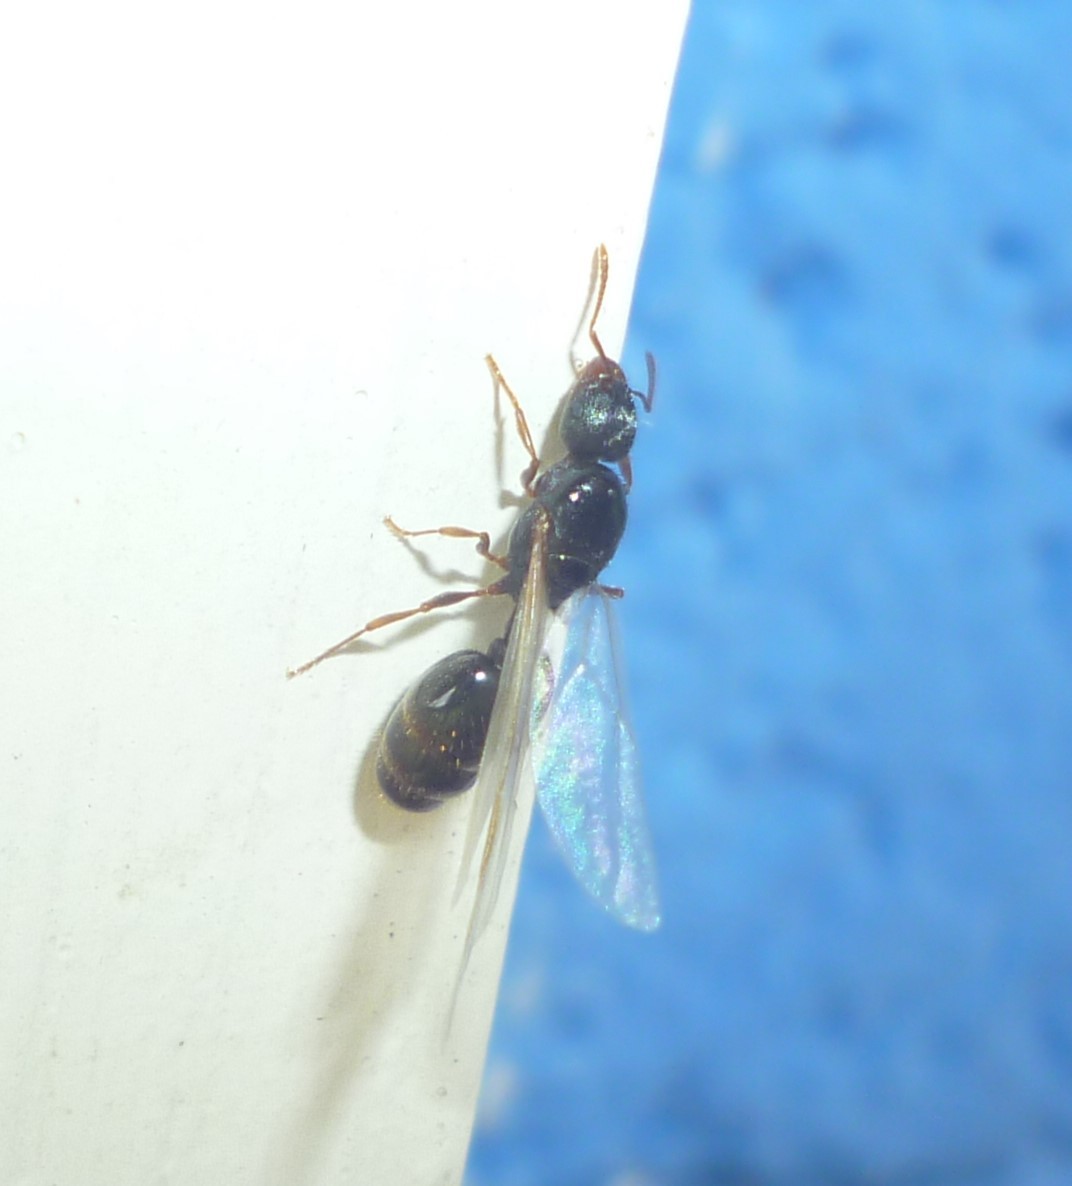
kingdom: Animalia
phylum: Arthropoda
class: Insecta
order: Hymenoptera
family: Formicidae
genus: Tetramorium
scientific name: Tetramorium immigrans
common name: Pavement ant
